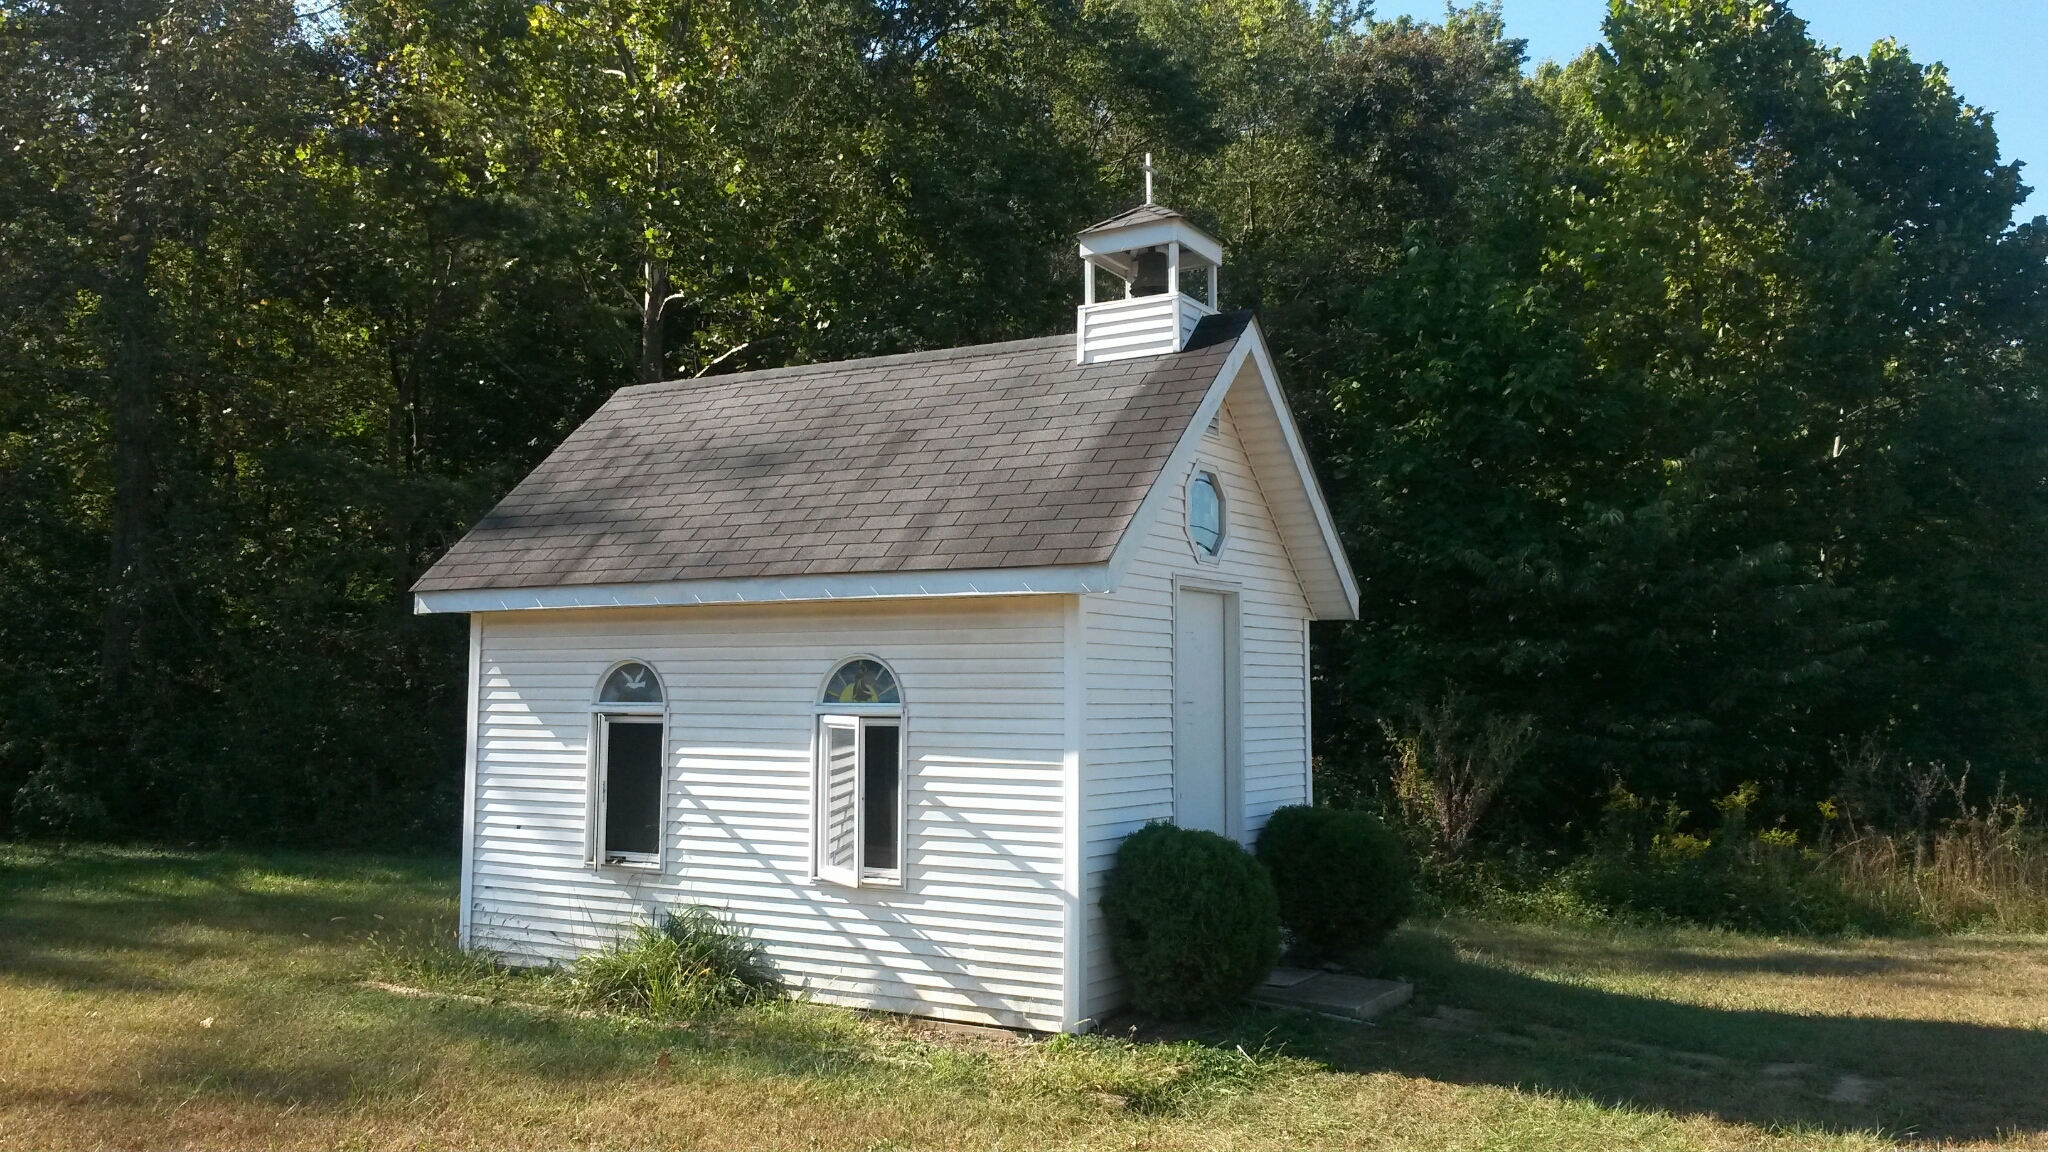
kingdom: Plantae
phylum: Tracheophyta
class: Magnoliopsida
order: Lamiales
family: Lamiaceae
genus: Prunella
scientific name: Prunella vulgaris
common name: Heal-all
